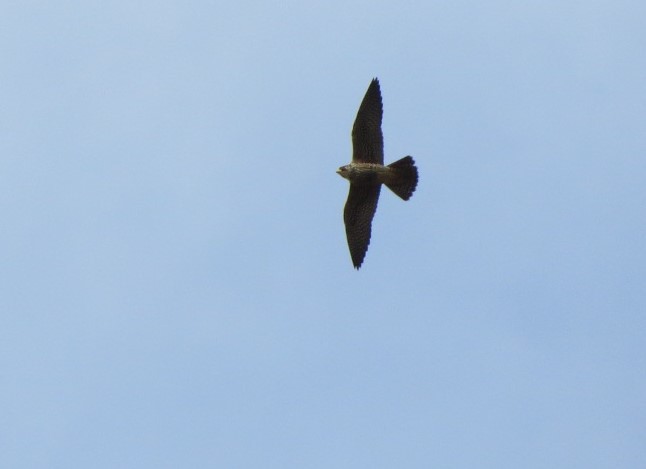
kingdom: Animalia
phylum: Chordata
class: Aves
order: Falconiformes
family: Falconidae
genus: Falco
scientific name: Falco peregrinus
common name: Peregrine falcon
